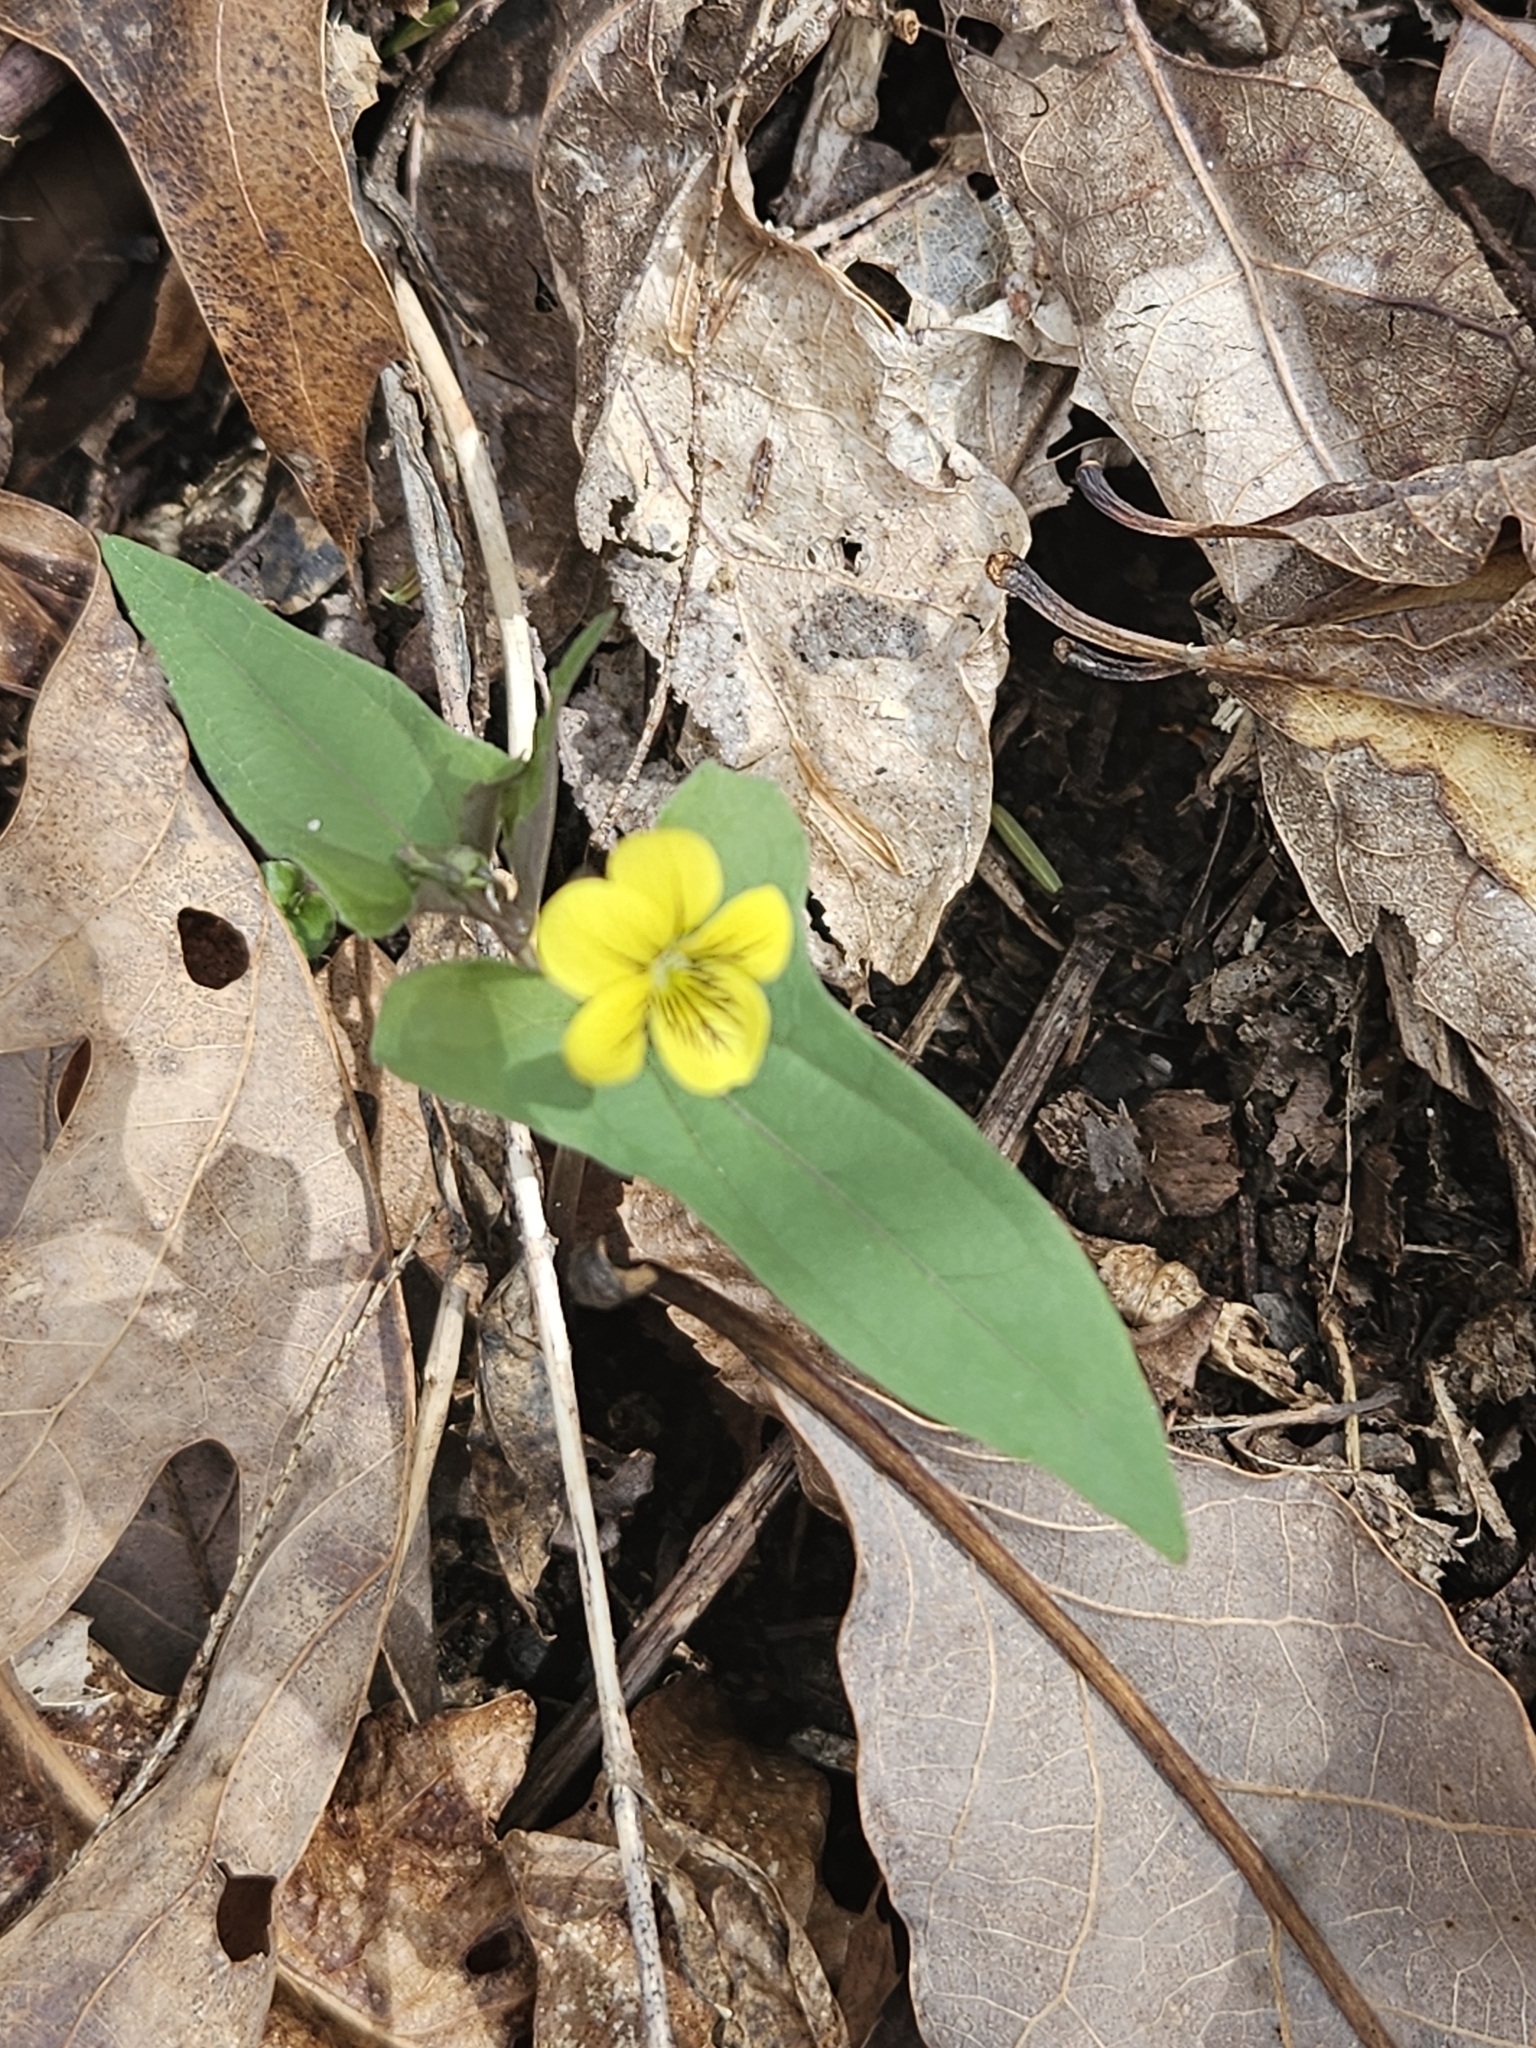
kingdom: Plantae
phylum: Tracheophyta
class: Magnoliopsida
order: Malpighiales
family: Violaceae
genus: Viola
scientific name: Viola hastata
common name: Spear-leaf violet
